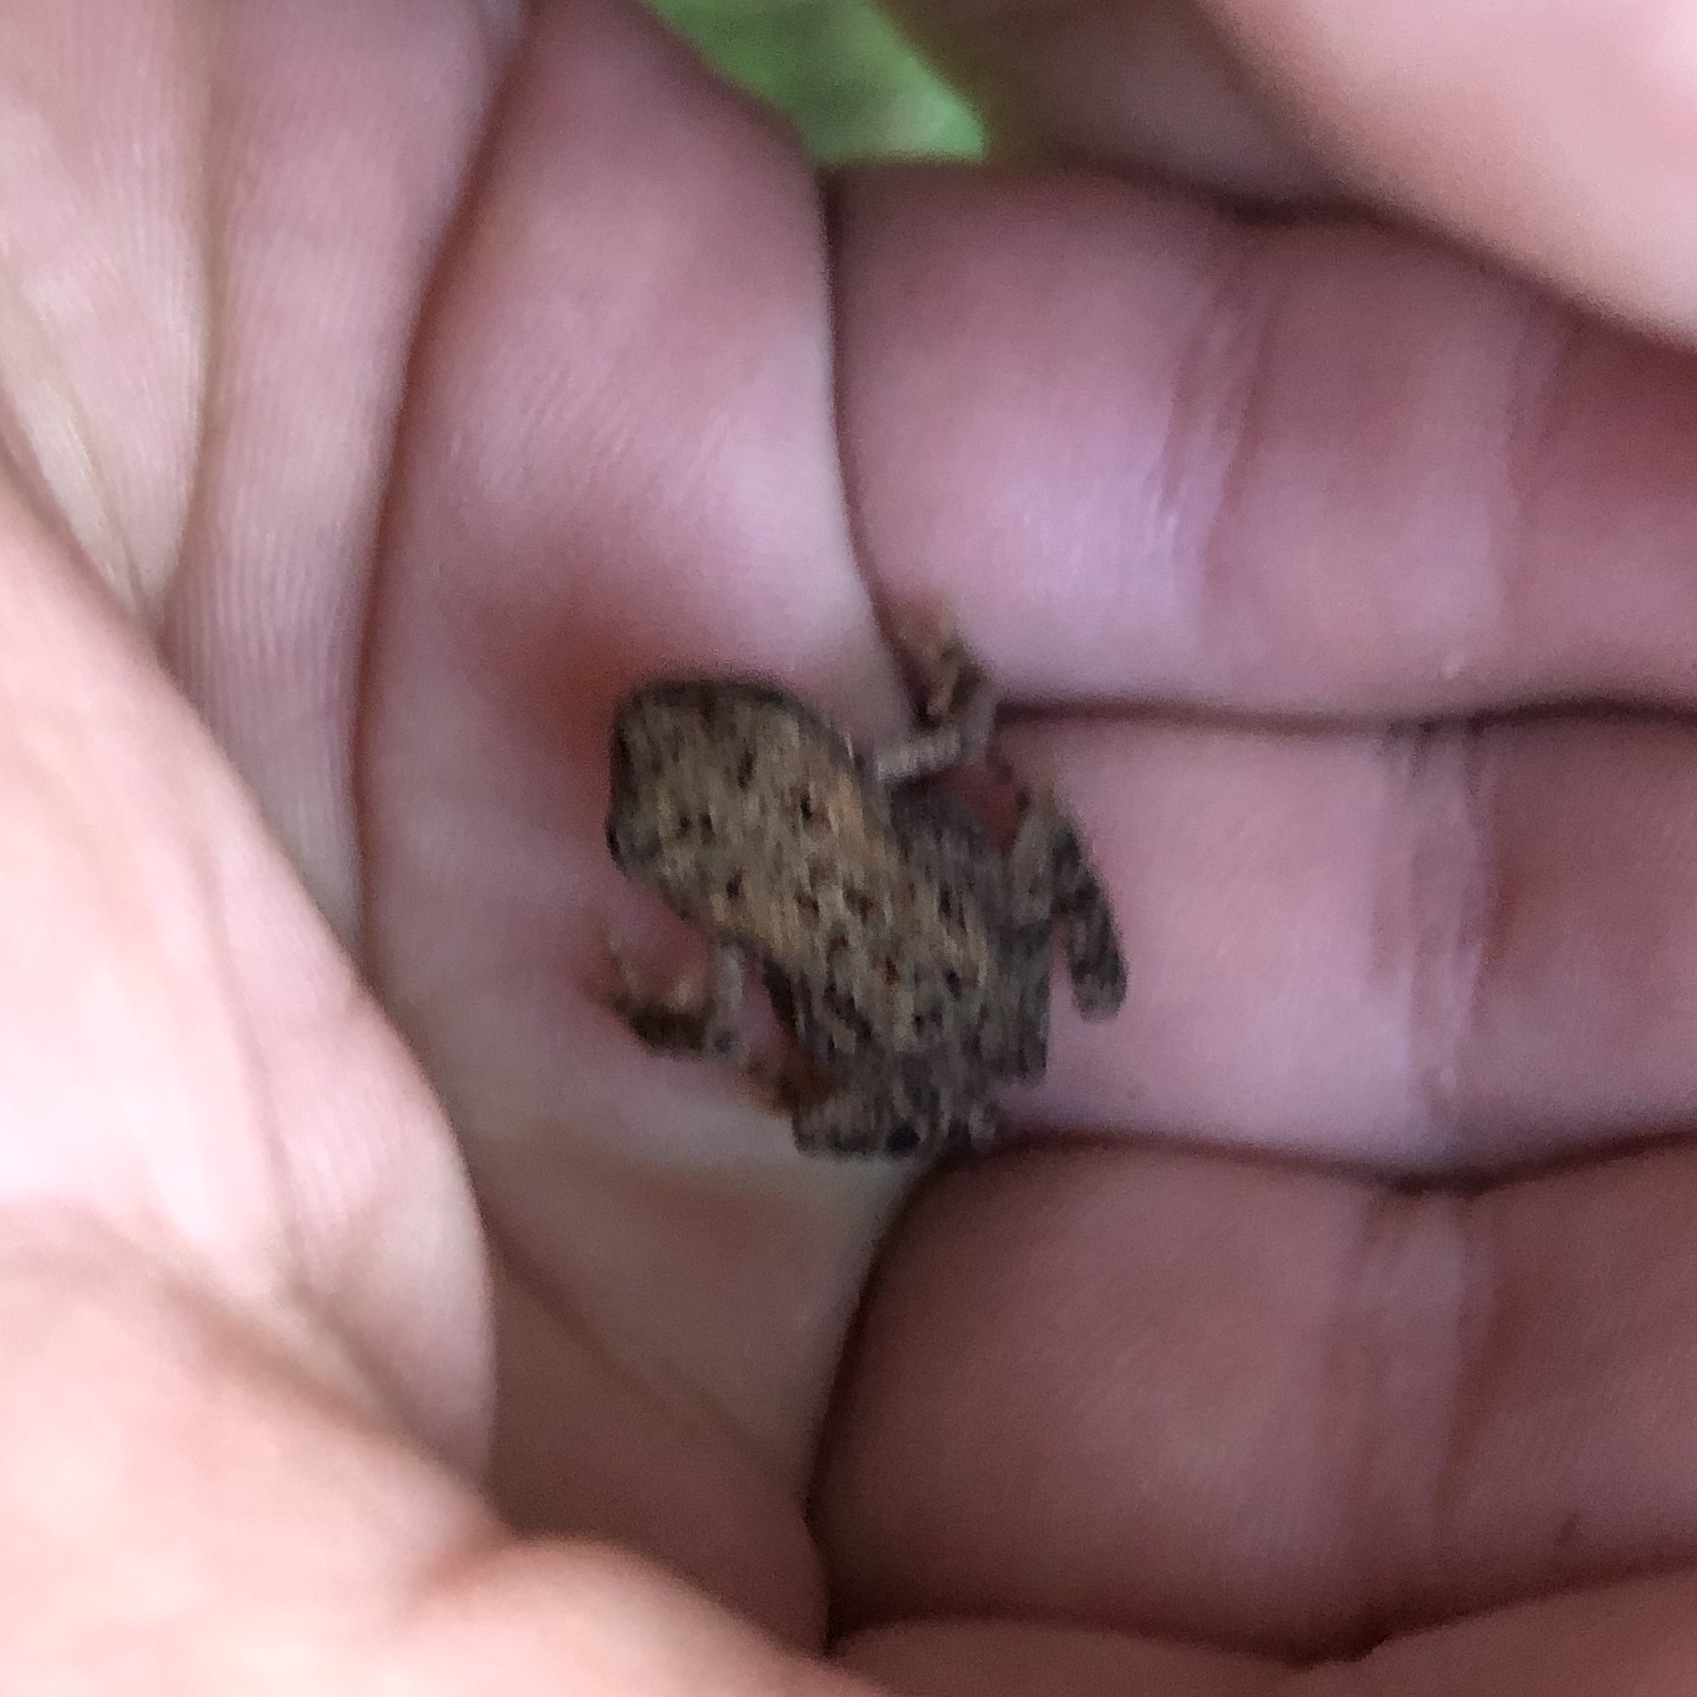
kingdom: Animalia
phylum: Chordata
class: Amphibia
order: Anura
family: Bufonidae
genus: Anaxyrus
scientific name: Anaxyrus americanus
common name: American toad
